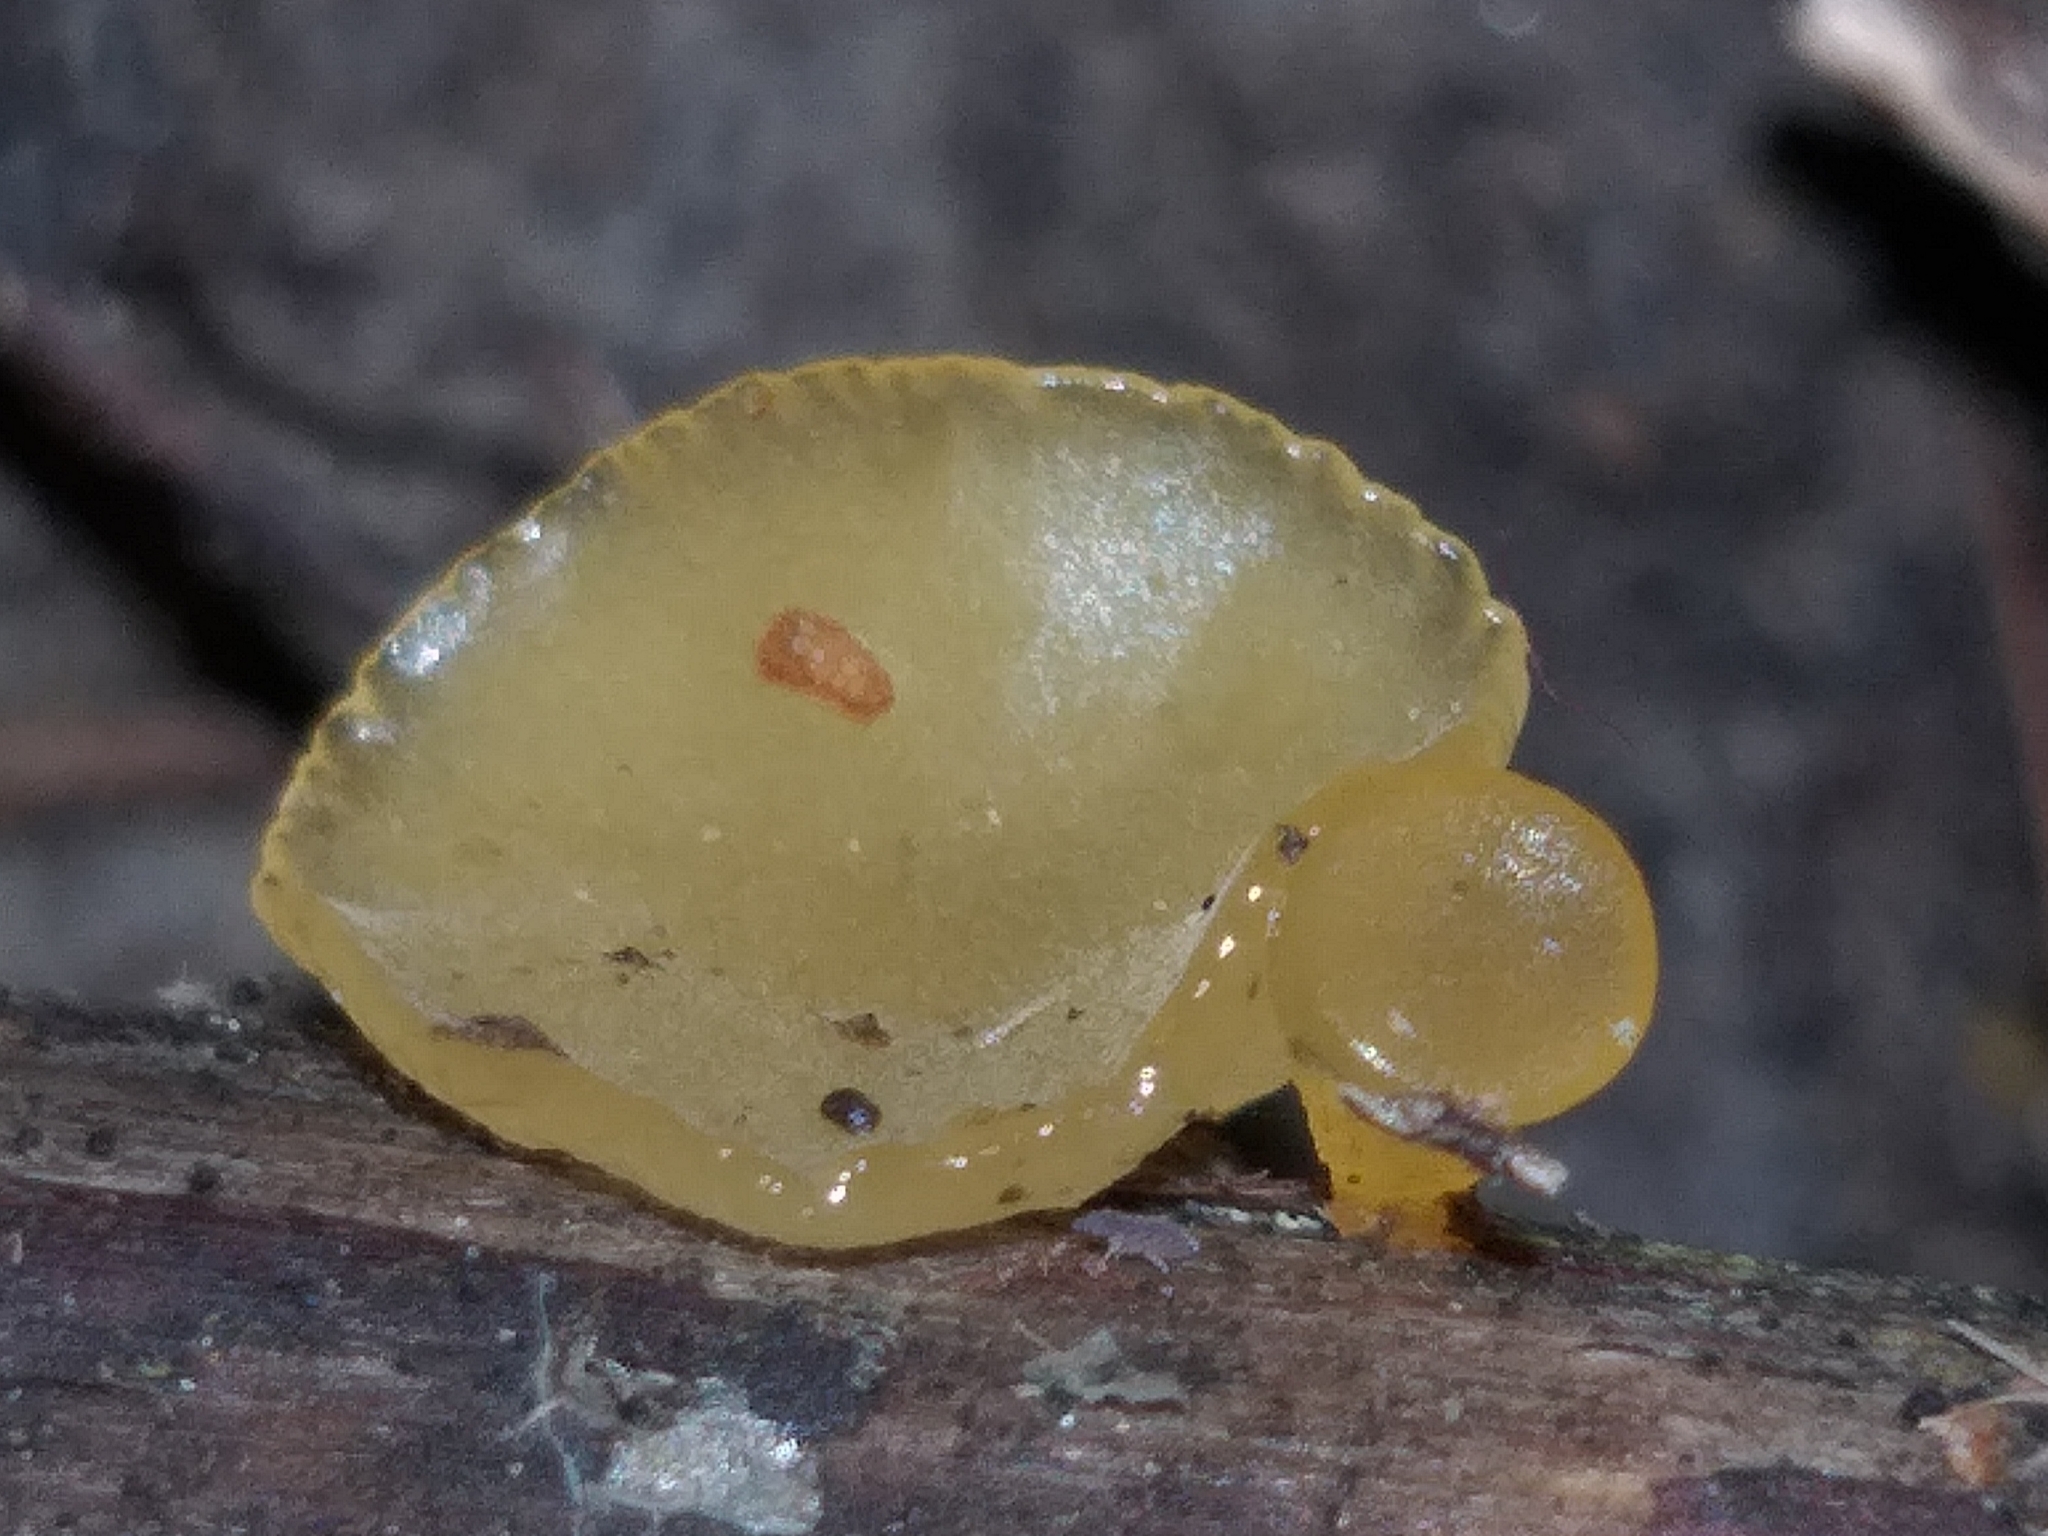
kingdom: Fungi
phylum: Basidiomycota
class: Dacrymycetes
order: Dacrymycetales
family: Dacrymycetaceae
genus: Heterotextus
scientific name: Heterotextus miltinus
